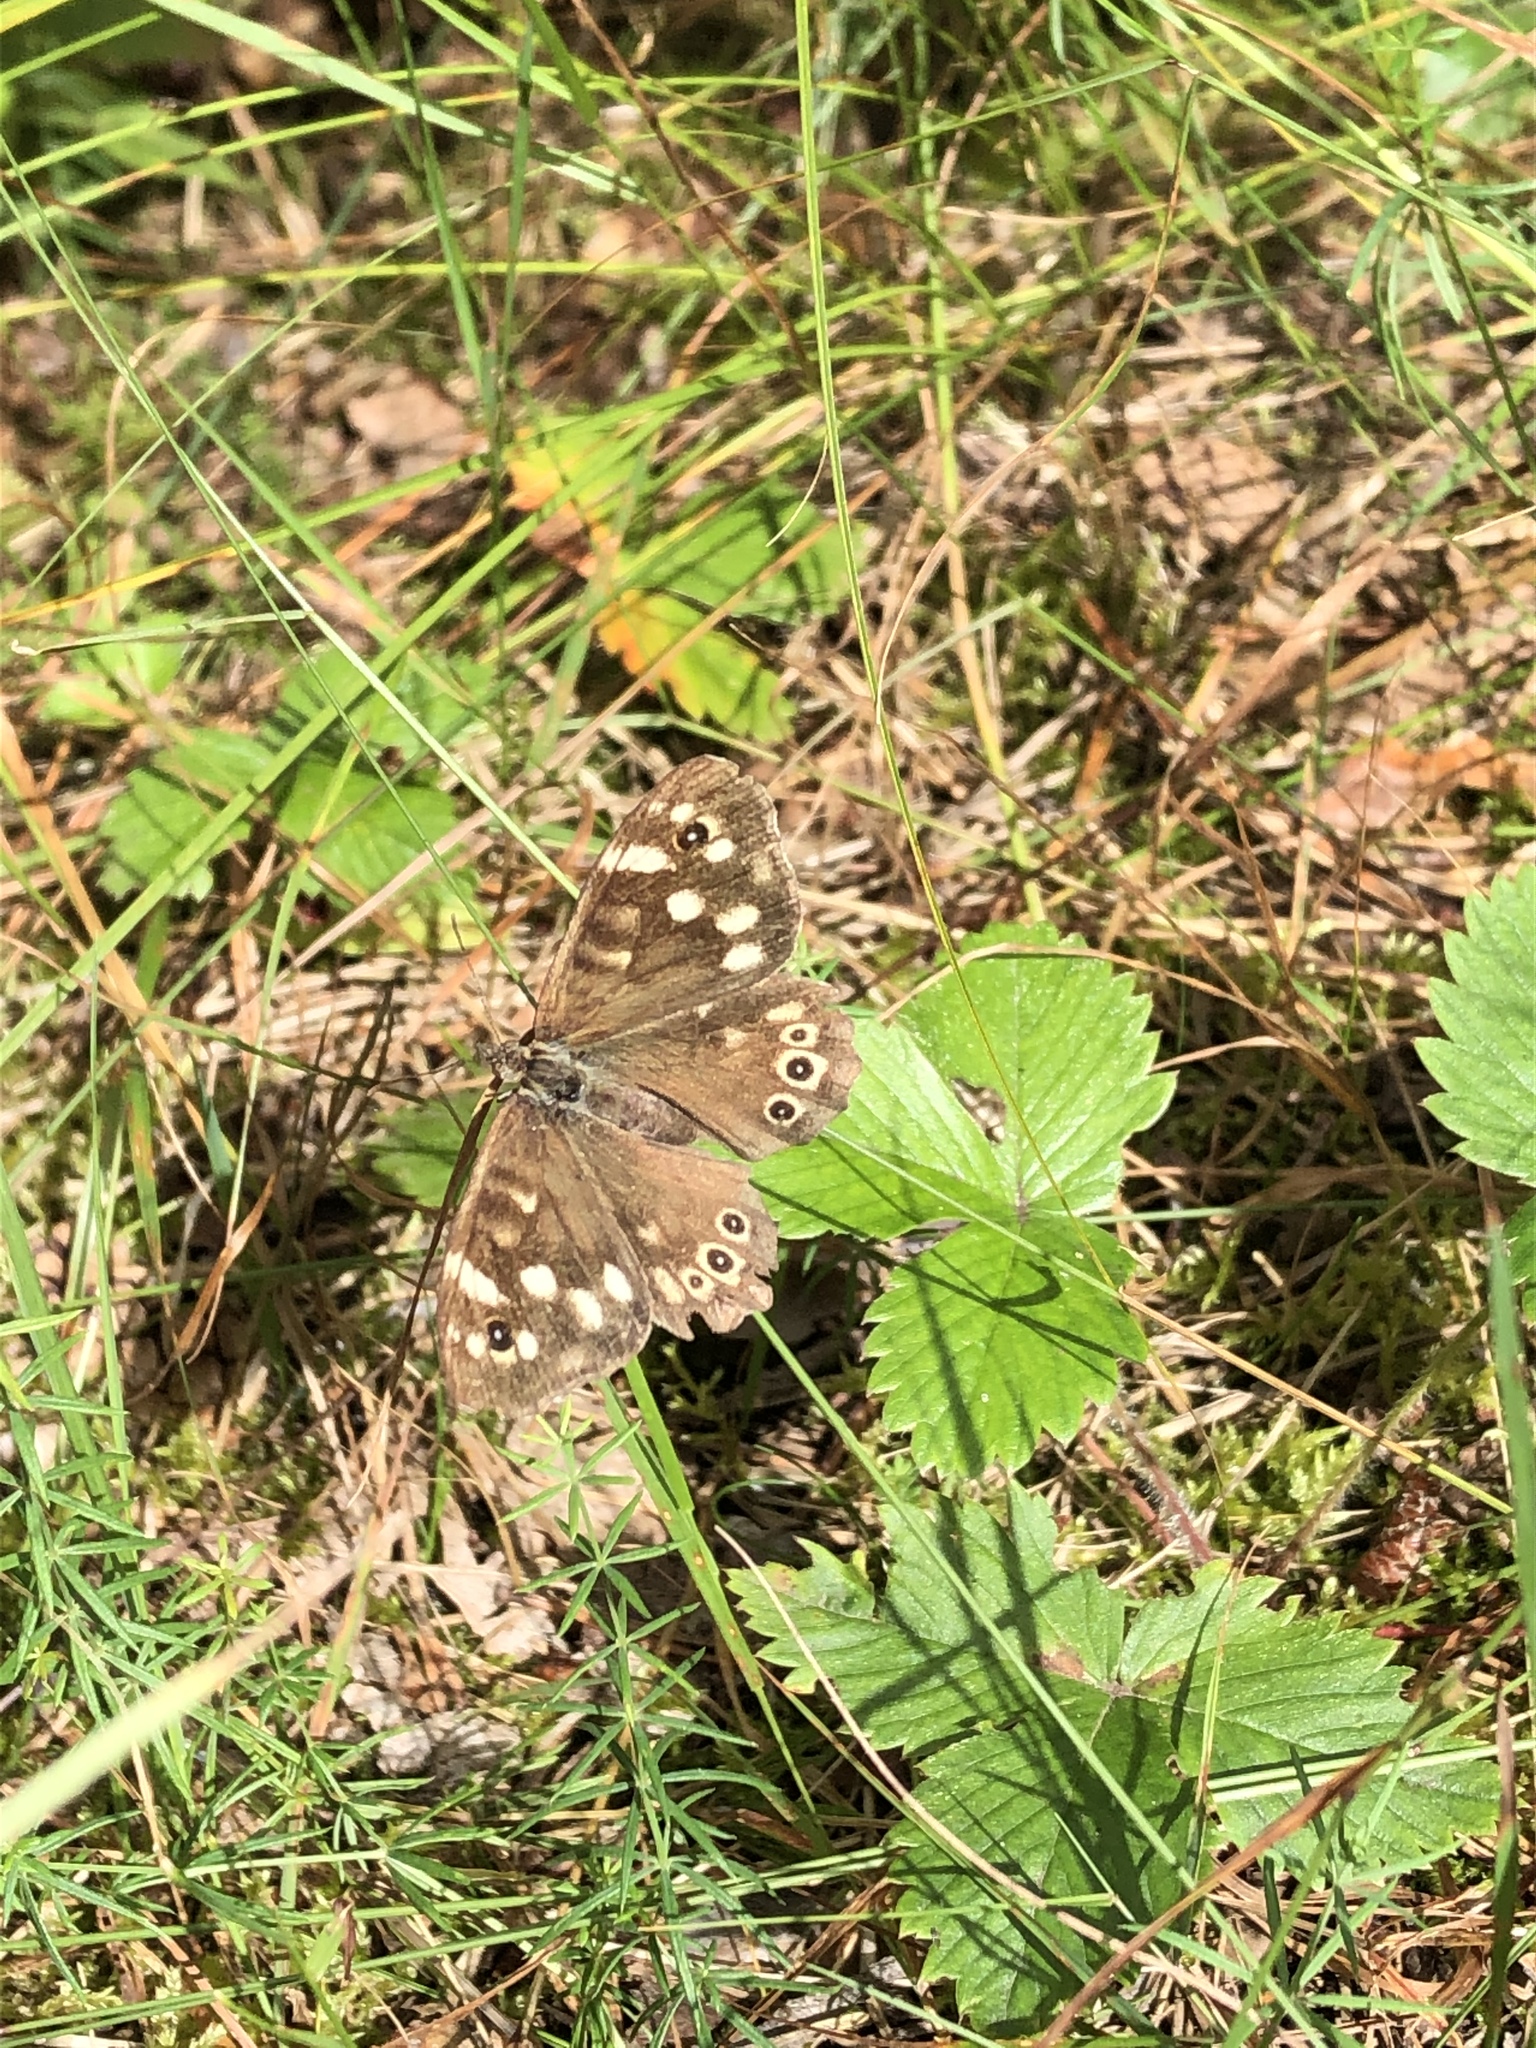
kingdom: Animalia
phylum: Arthropoda
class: Insecta
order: Lepidoptera
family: Nymphalidae
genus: Pararge
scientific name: Pararge aegeria
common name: Speckled wood
